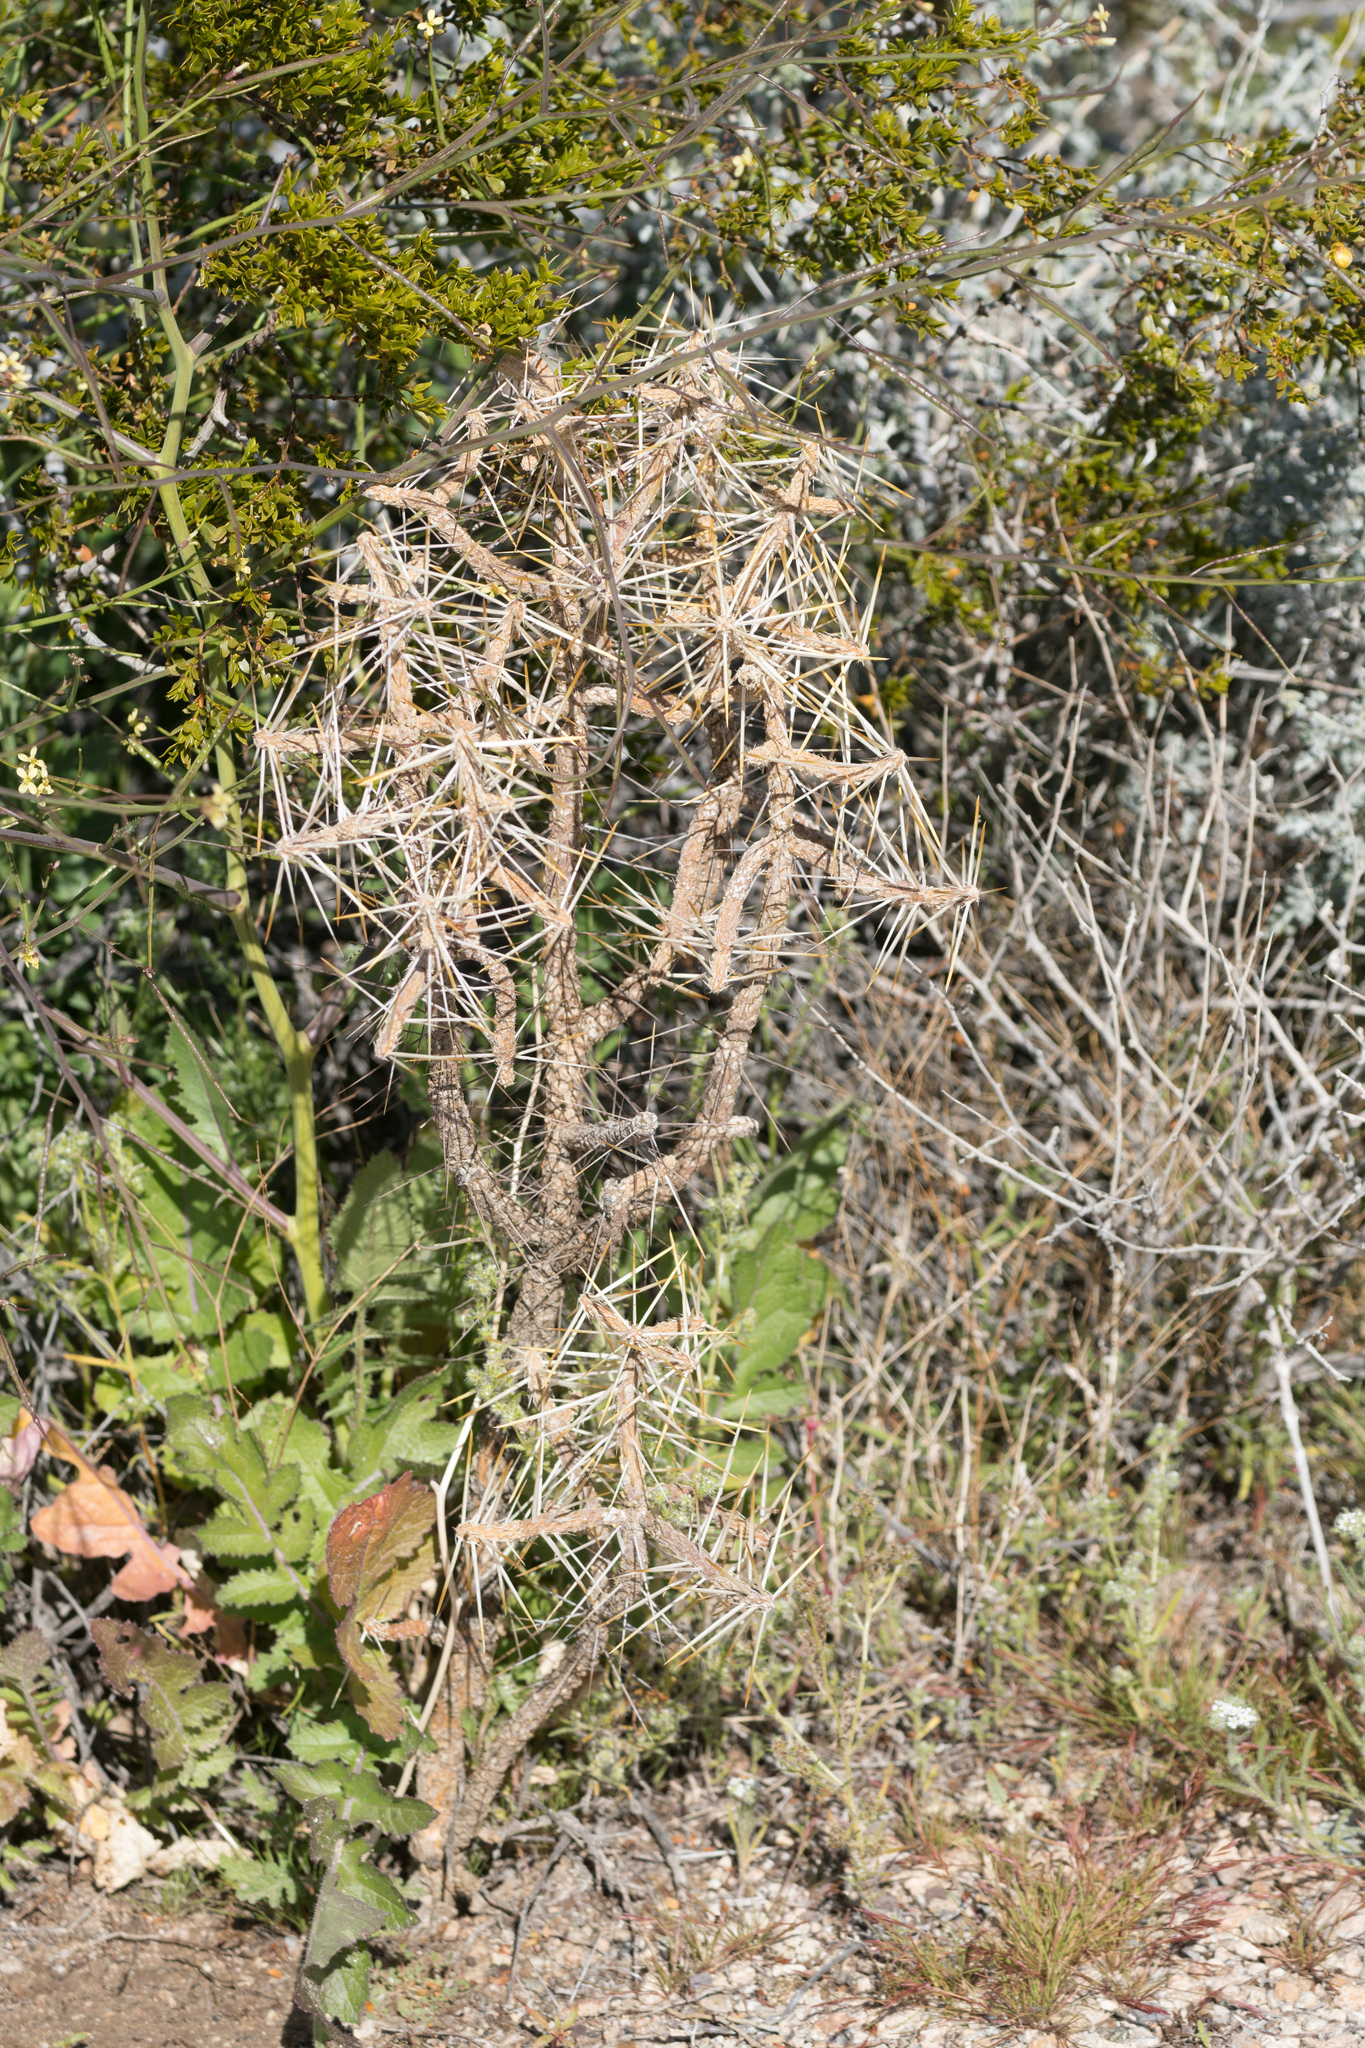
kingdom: Plantae
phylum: Tracheophyta
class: Magnoliopsida
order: Caryophyllales
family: Cactaceae
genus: Cylindropuntia
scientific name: Cylindropuntia ramosissima
